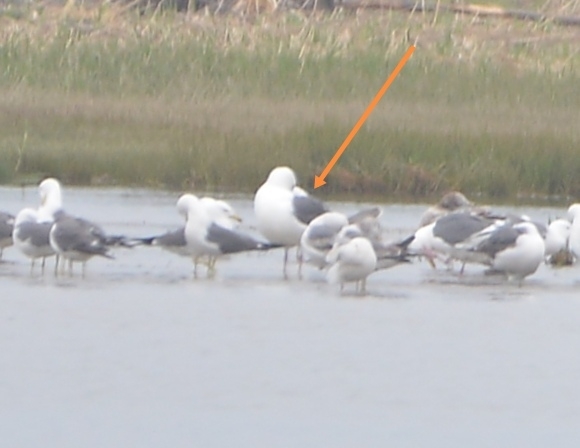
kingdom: Animalia
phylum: Chordata
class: Aves
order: Charadriiformes
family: Laridae
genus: Larus
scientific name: Larus schistisagus
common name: Slaty-backed gull
